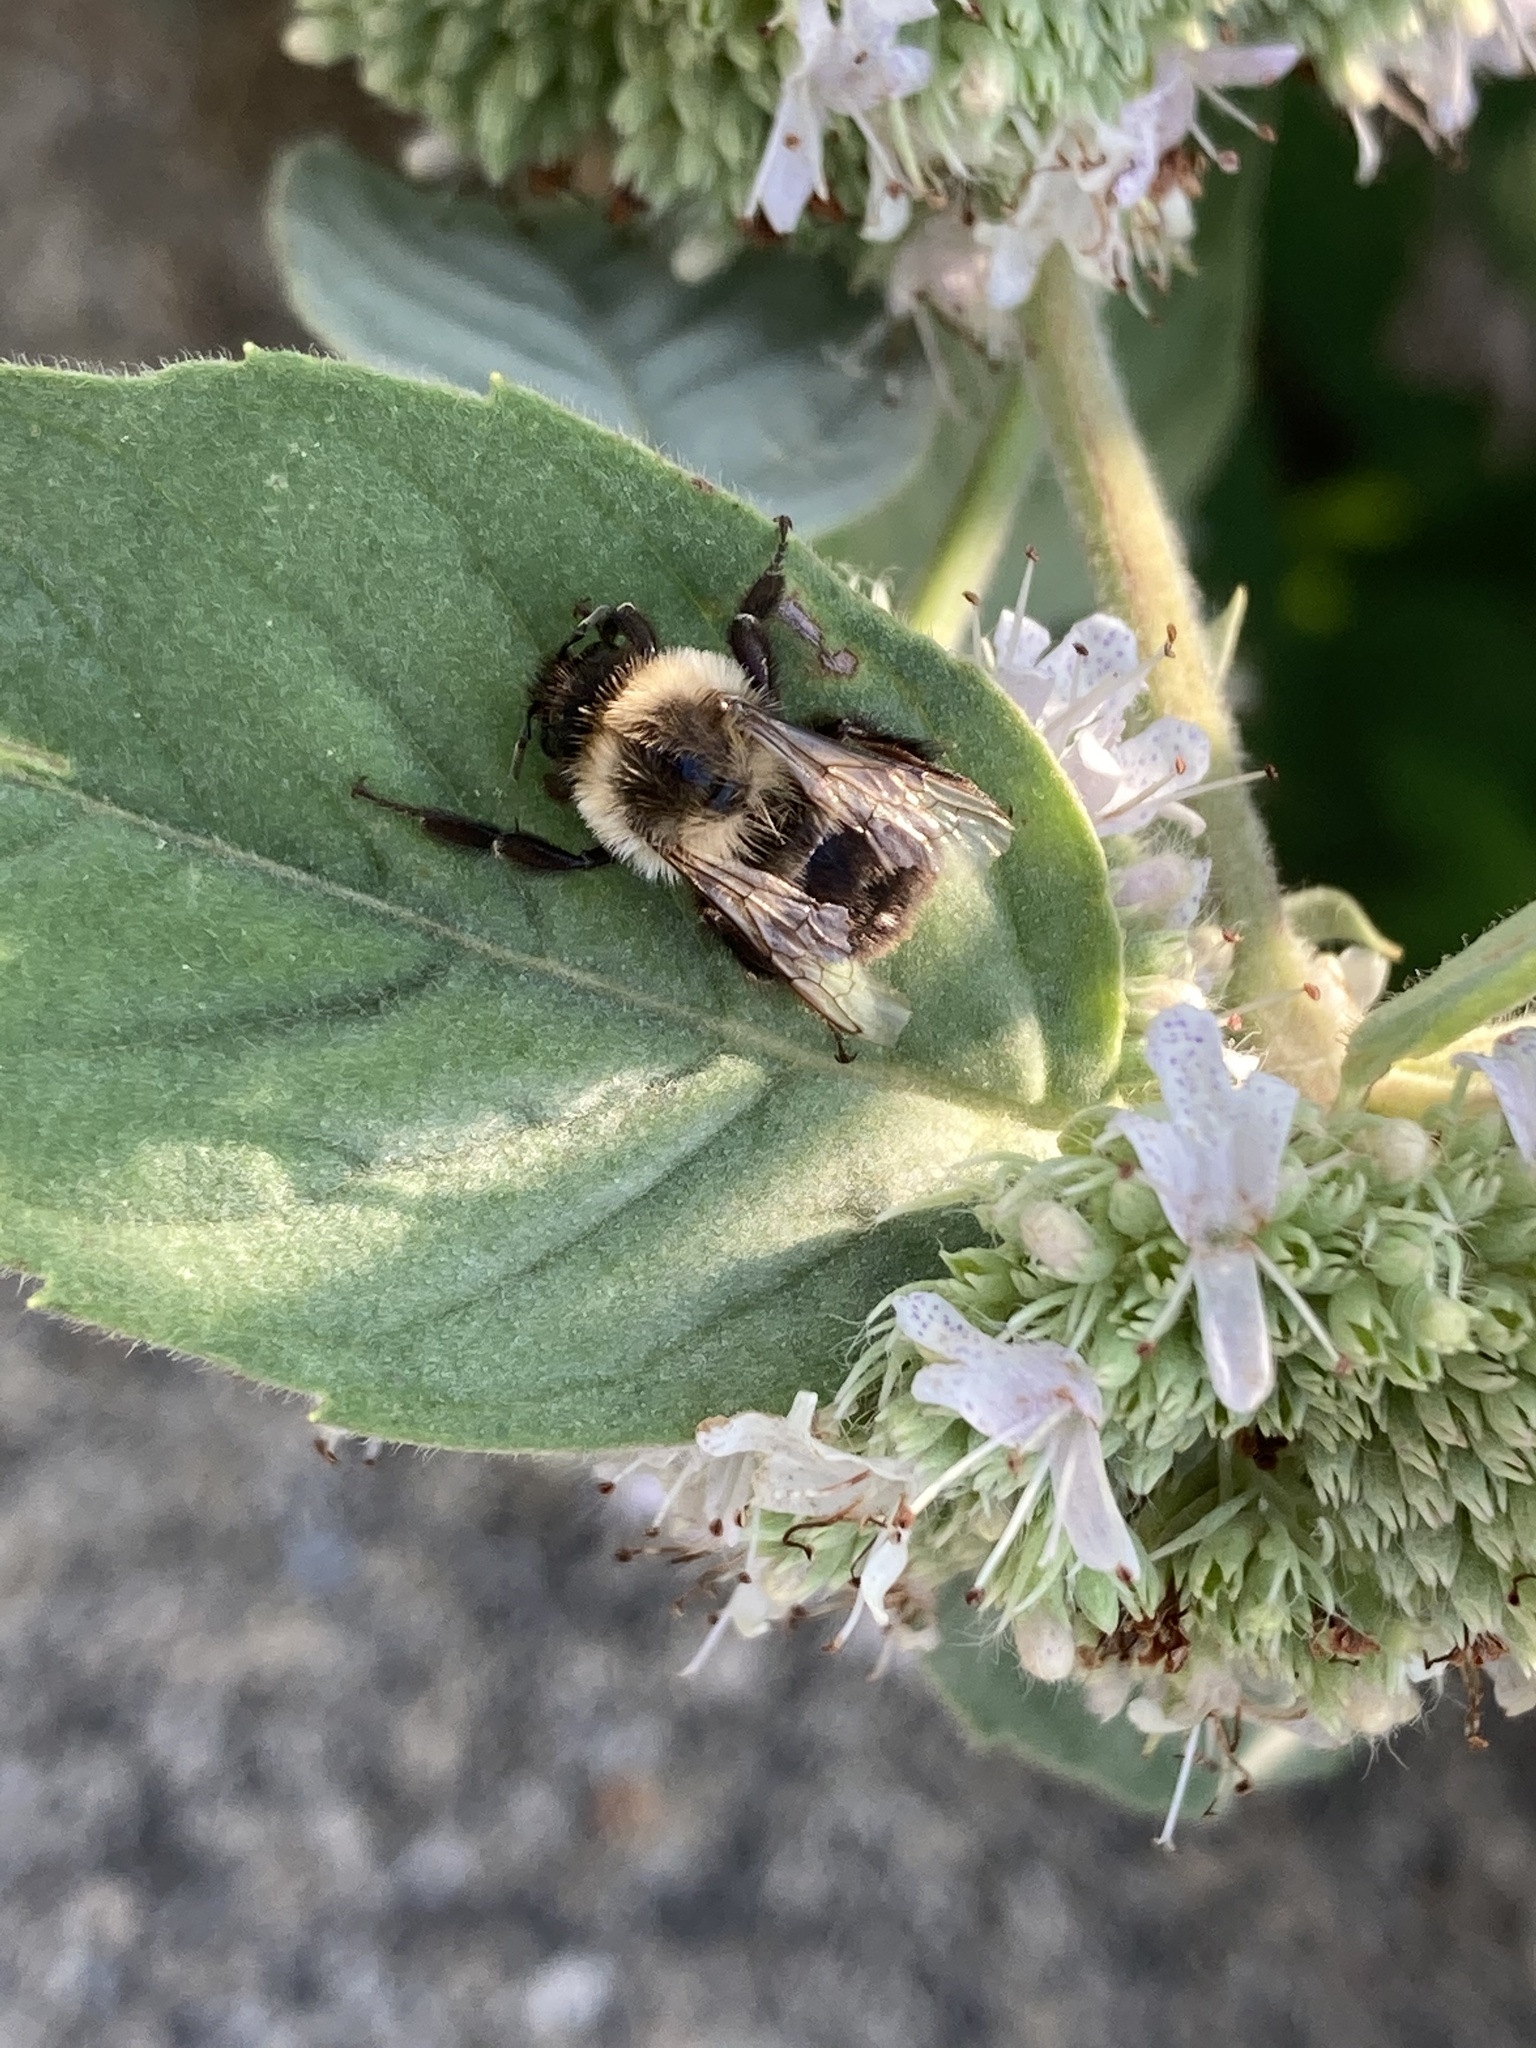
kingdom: Animalia
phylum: Arthropoda
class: Insecta
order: Hymenoptera
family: Apidae
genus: Bombus
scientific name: Bombus impatiens
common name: Common eastern bumble bee
